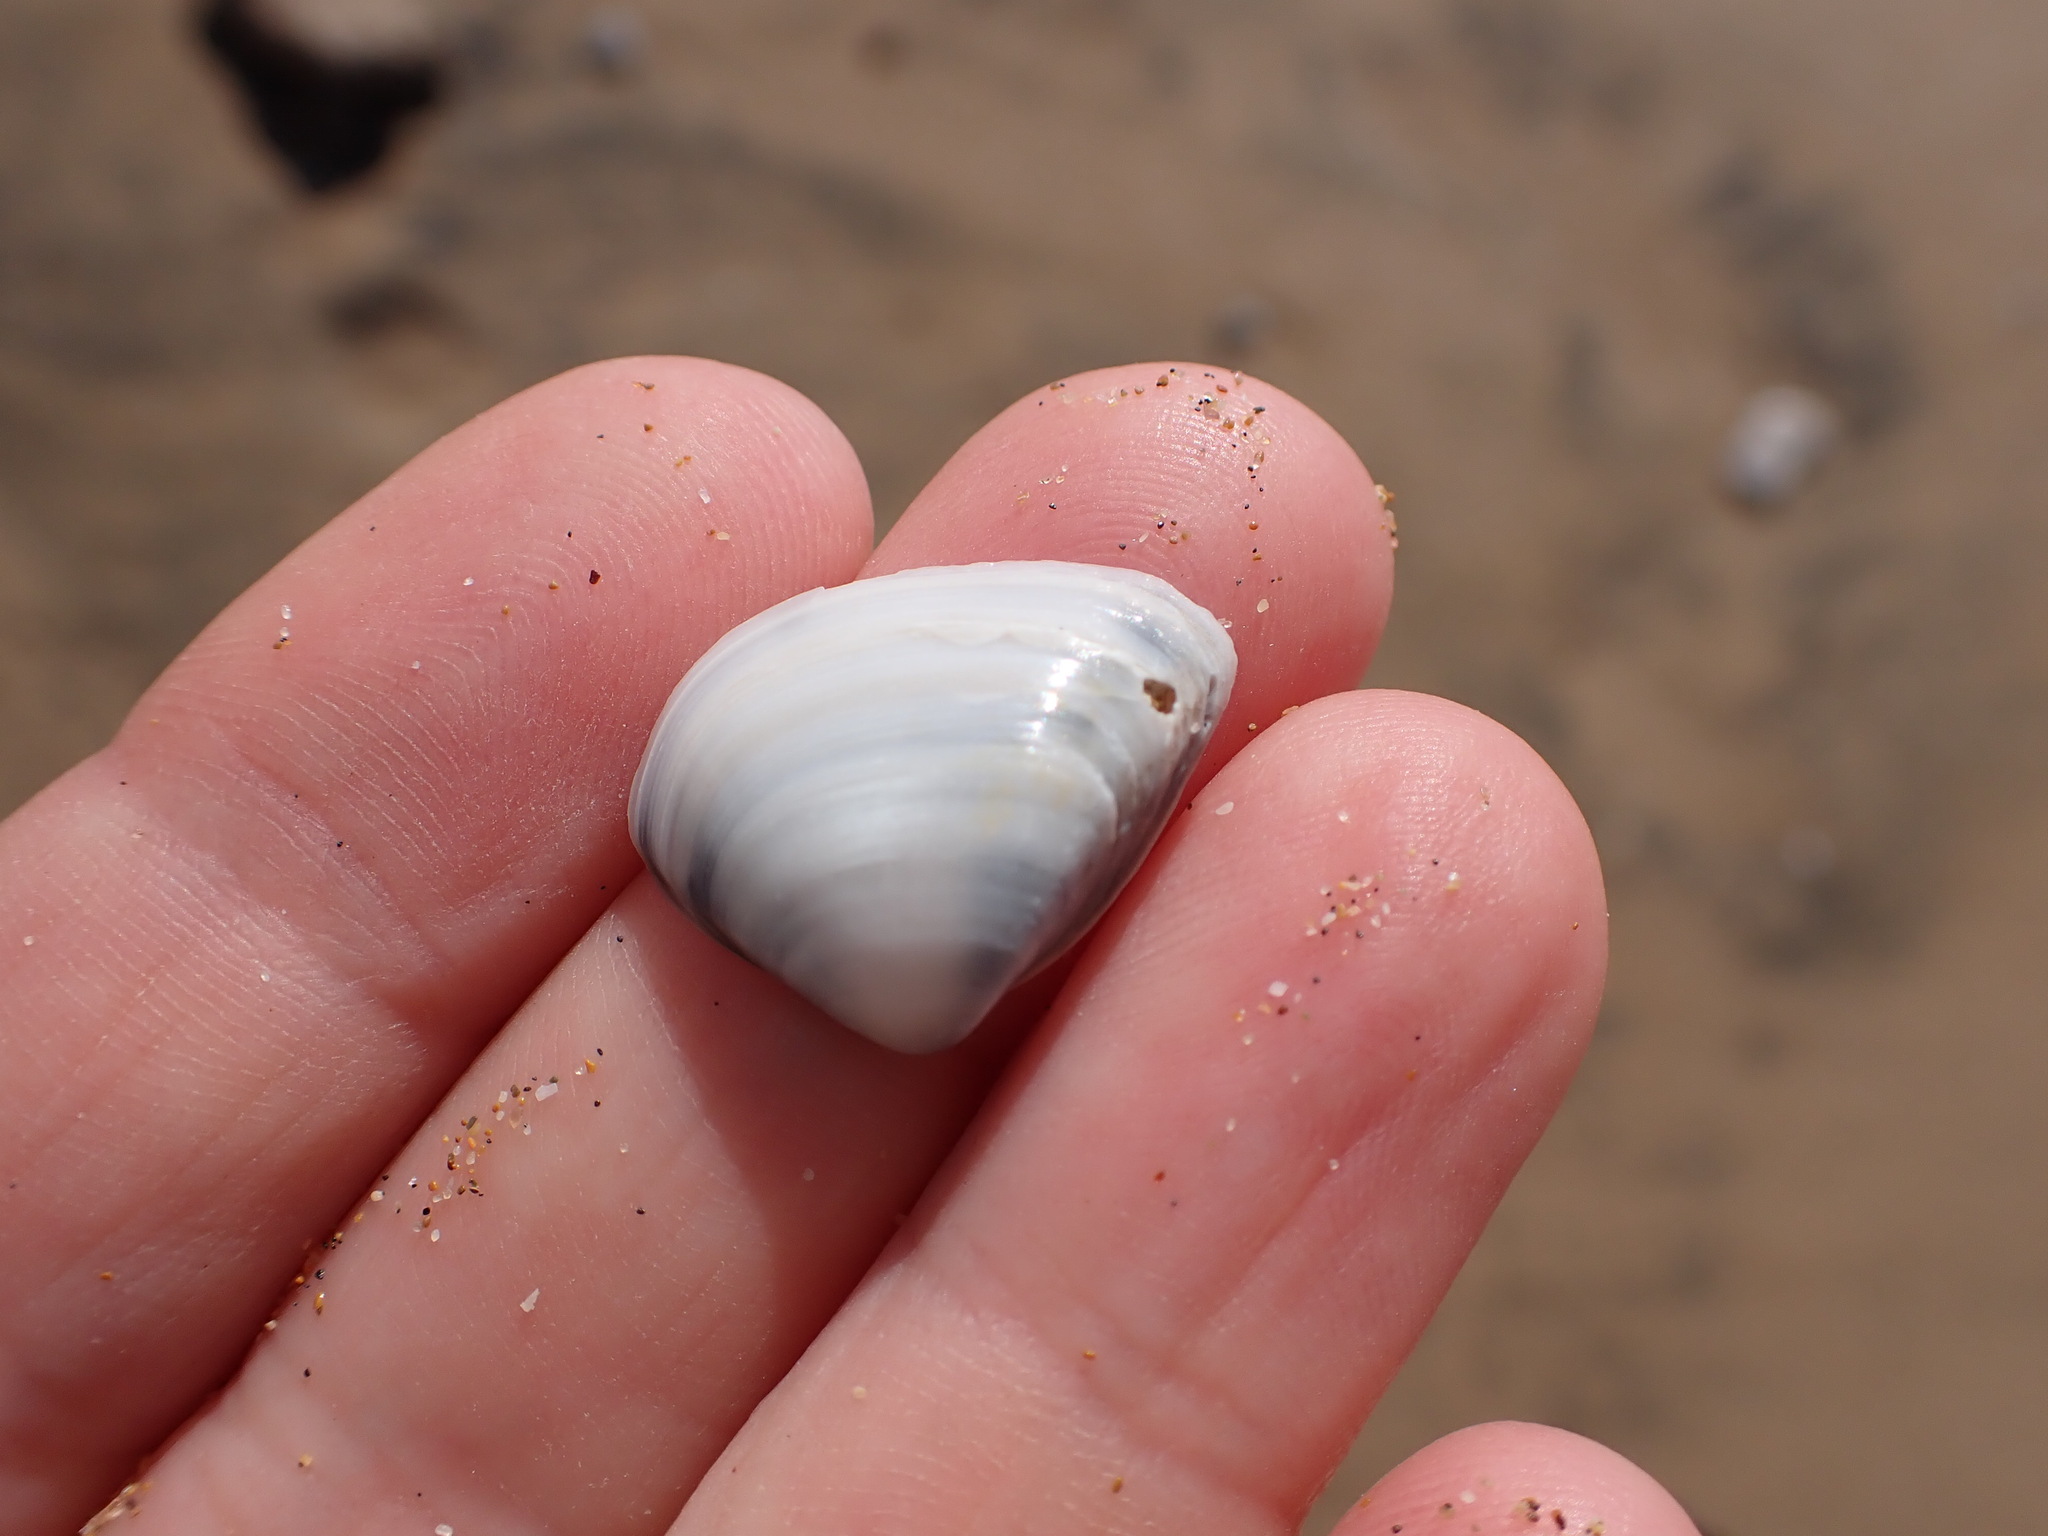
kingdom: Animalia
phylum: Mollusca
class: Bivalvia
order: Venerida
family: Mactridae
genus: Spisula
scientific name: Spisula subtruncata
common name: Cut trough shell
